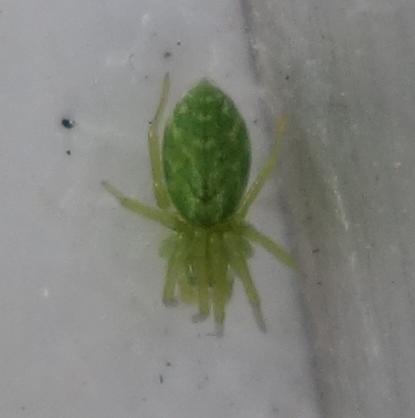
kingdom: Animalia
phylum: Arthropoda
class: Arachnida
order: Araneae
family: Dictynidae
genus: Nigma
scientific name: Nigma walckenaeri
